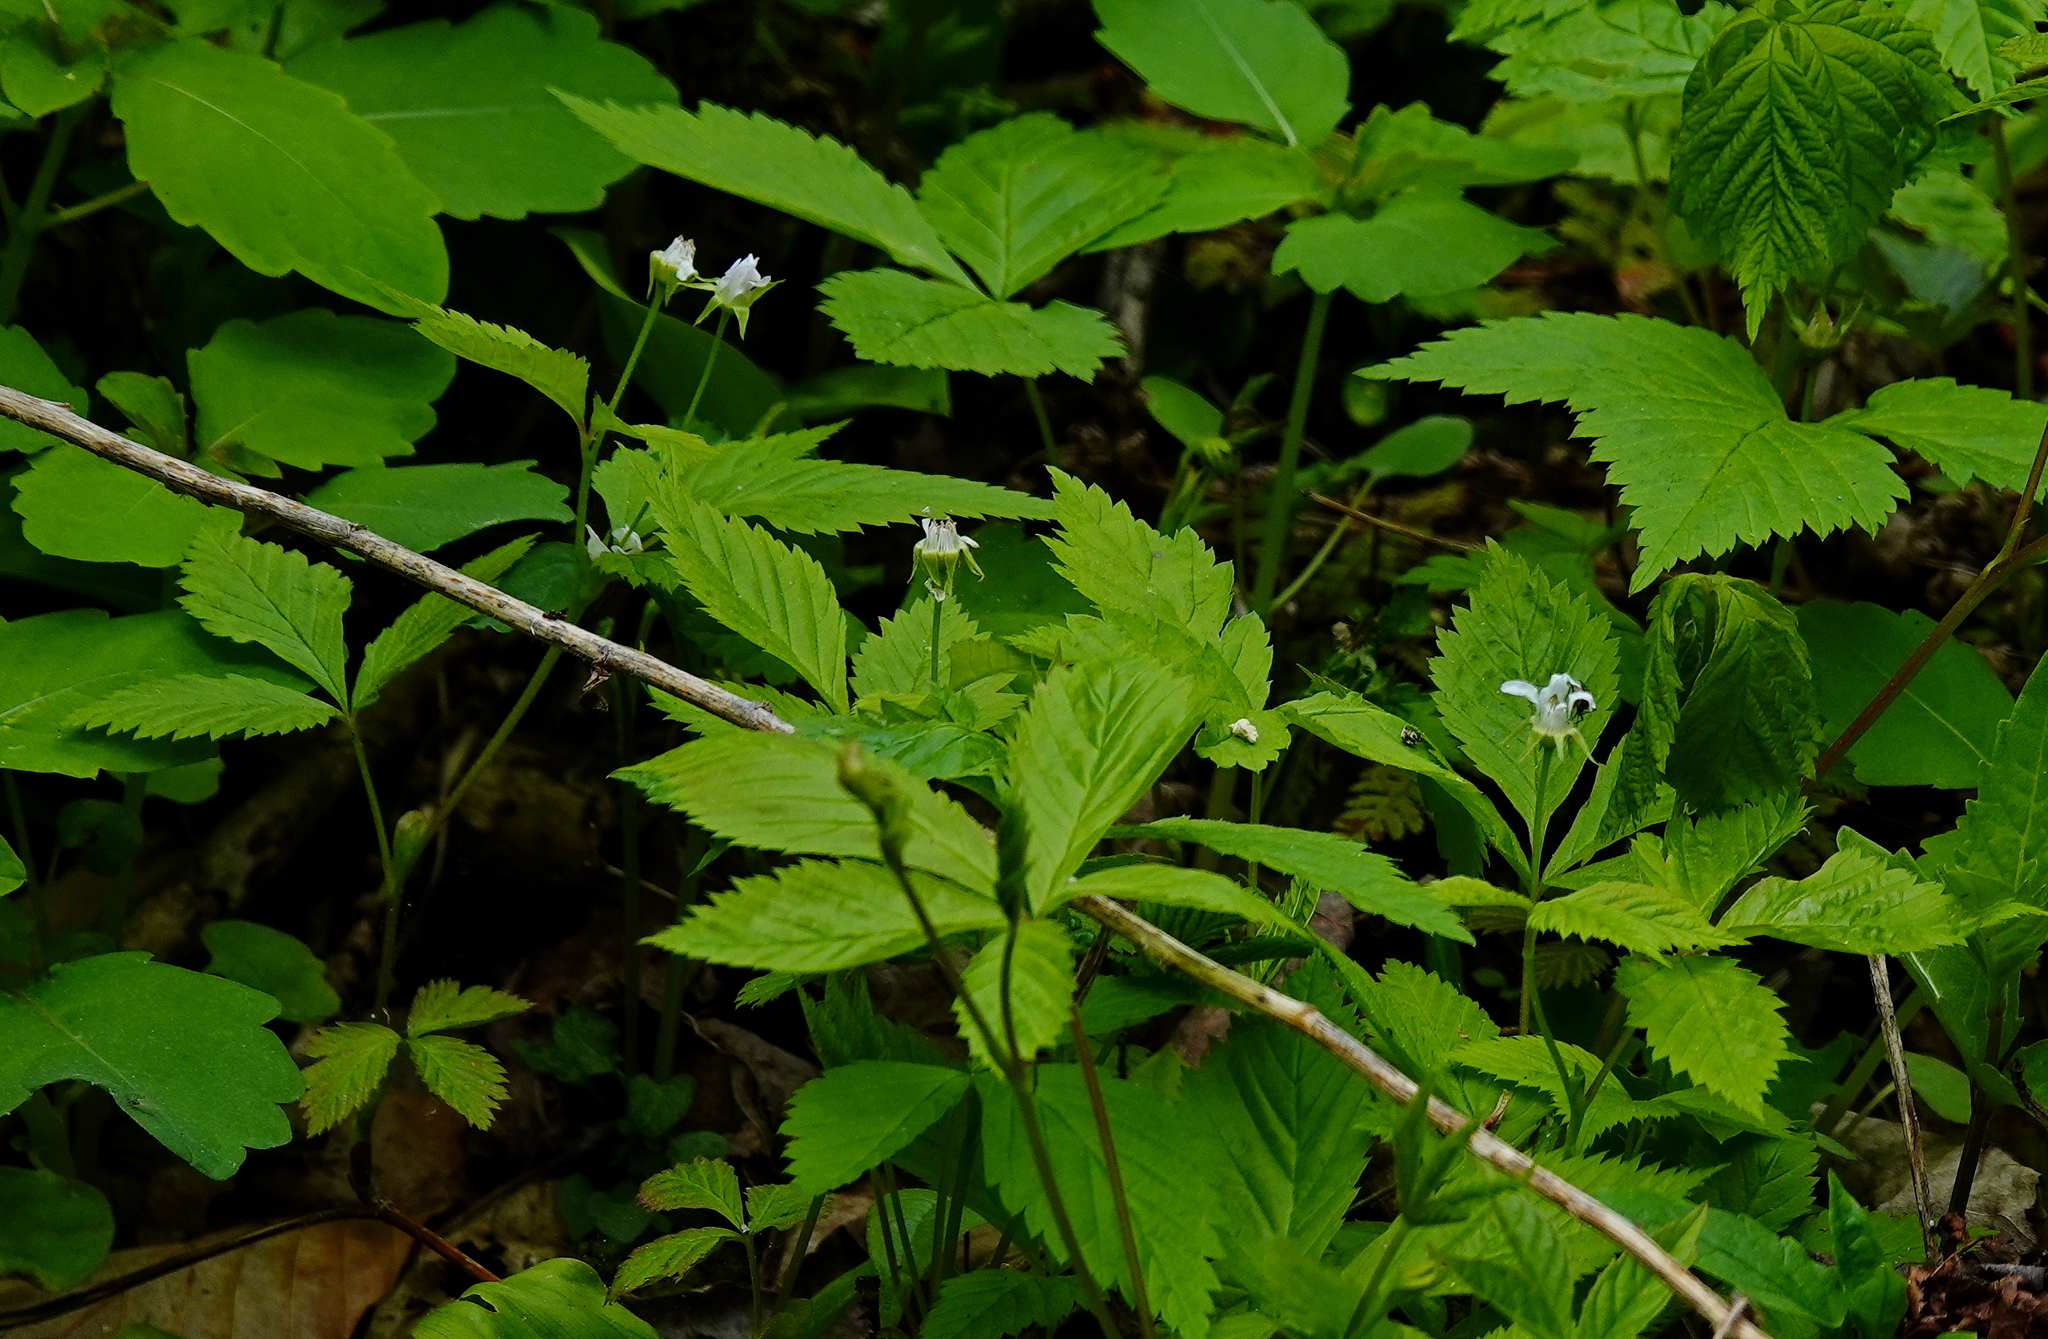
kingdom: Plantae
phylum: Tracheophyta
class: Magnoliopsida
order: Rosales
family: Rosaceae
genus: Rubus
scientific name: Rubus pubescens
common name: Dwarf raspberry
